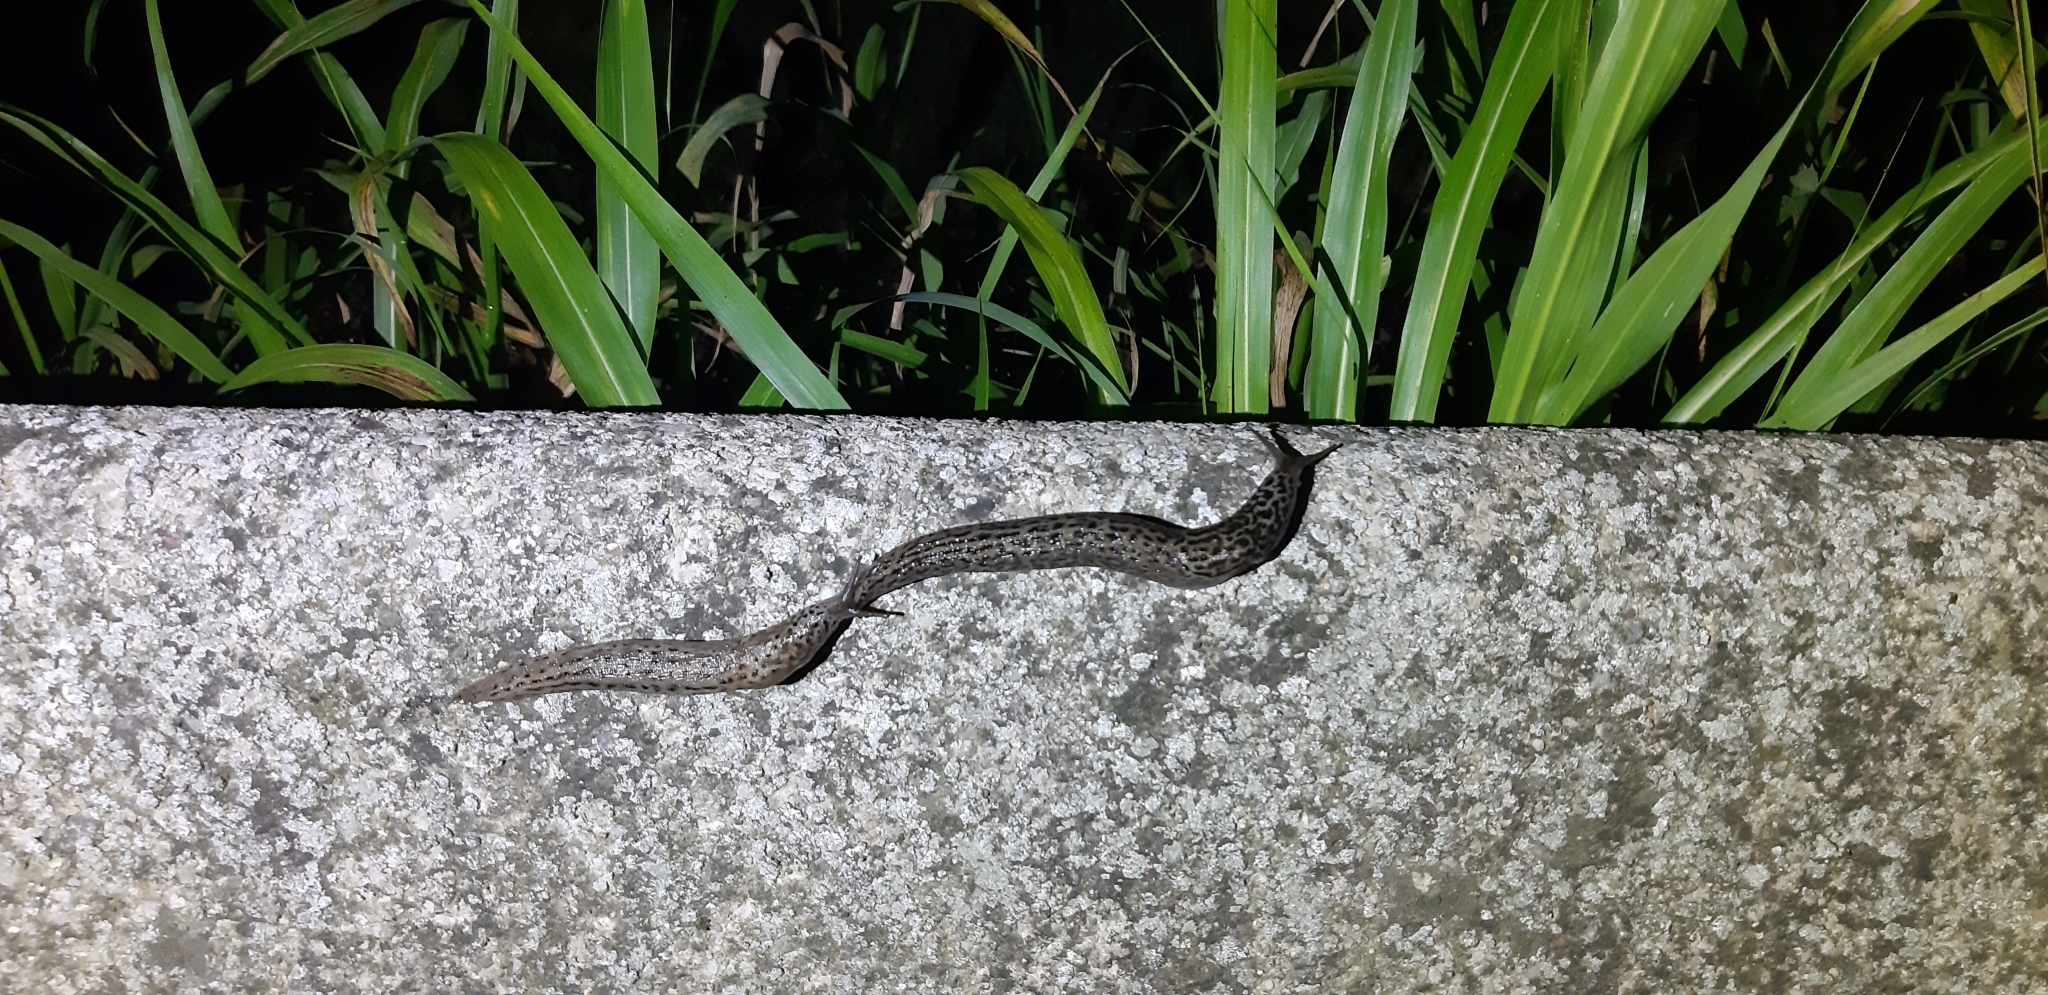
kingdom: Animalia
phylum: Mollusca
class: Gastropoda
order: Stylommatophora
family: Limacidae
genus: Limax
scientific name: Limax maximus
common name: Great grey slug
